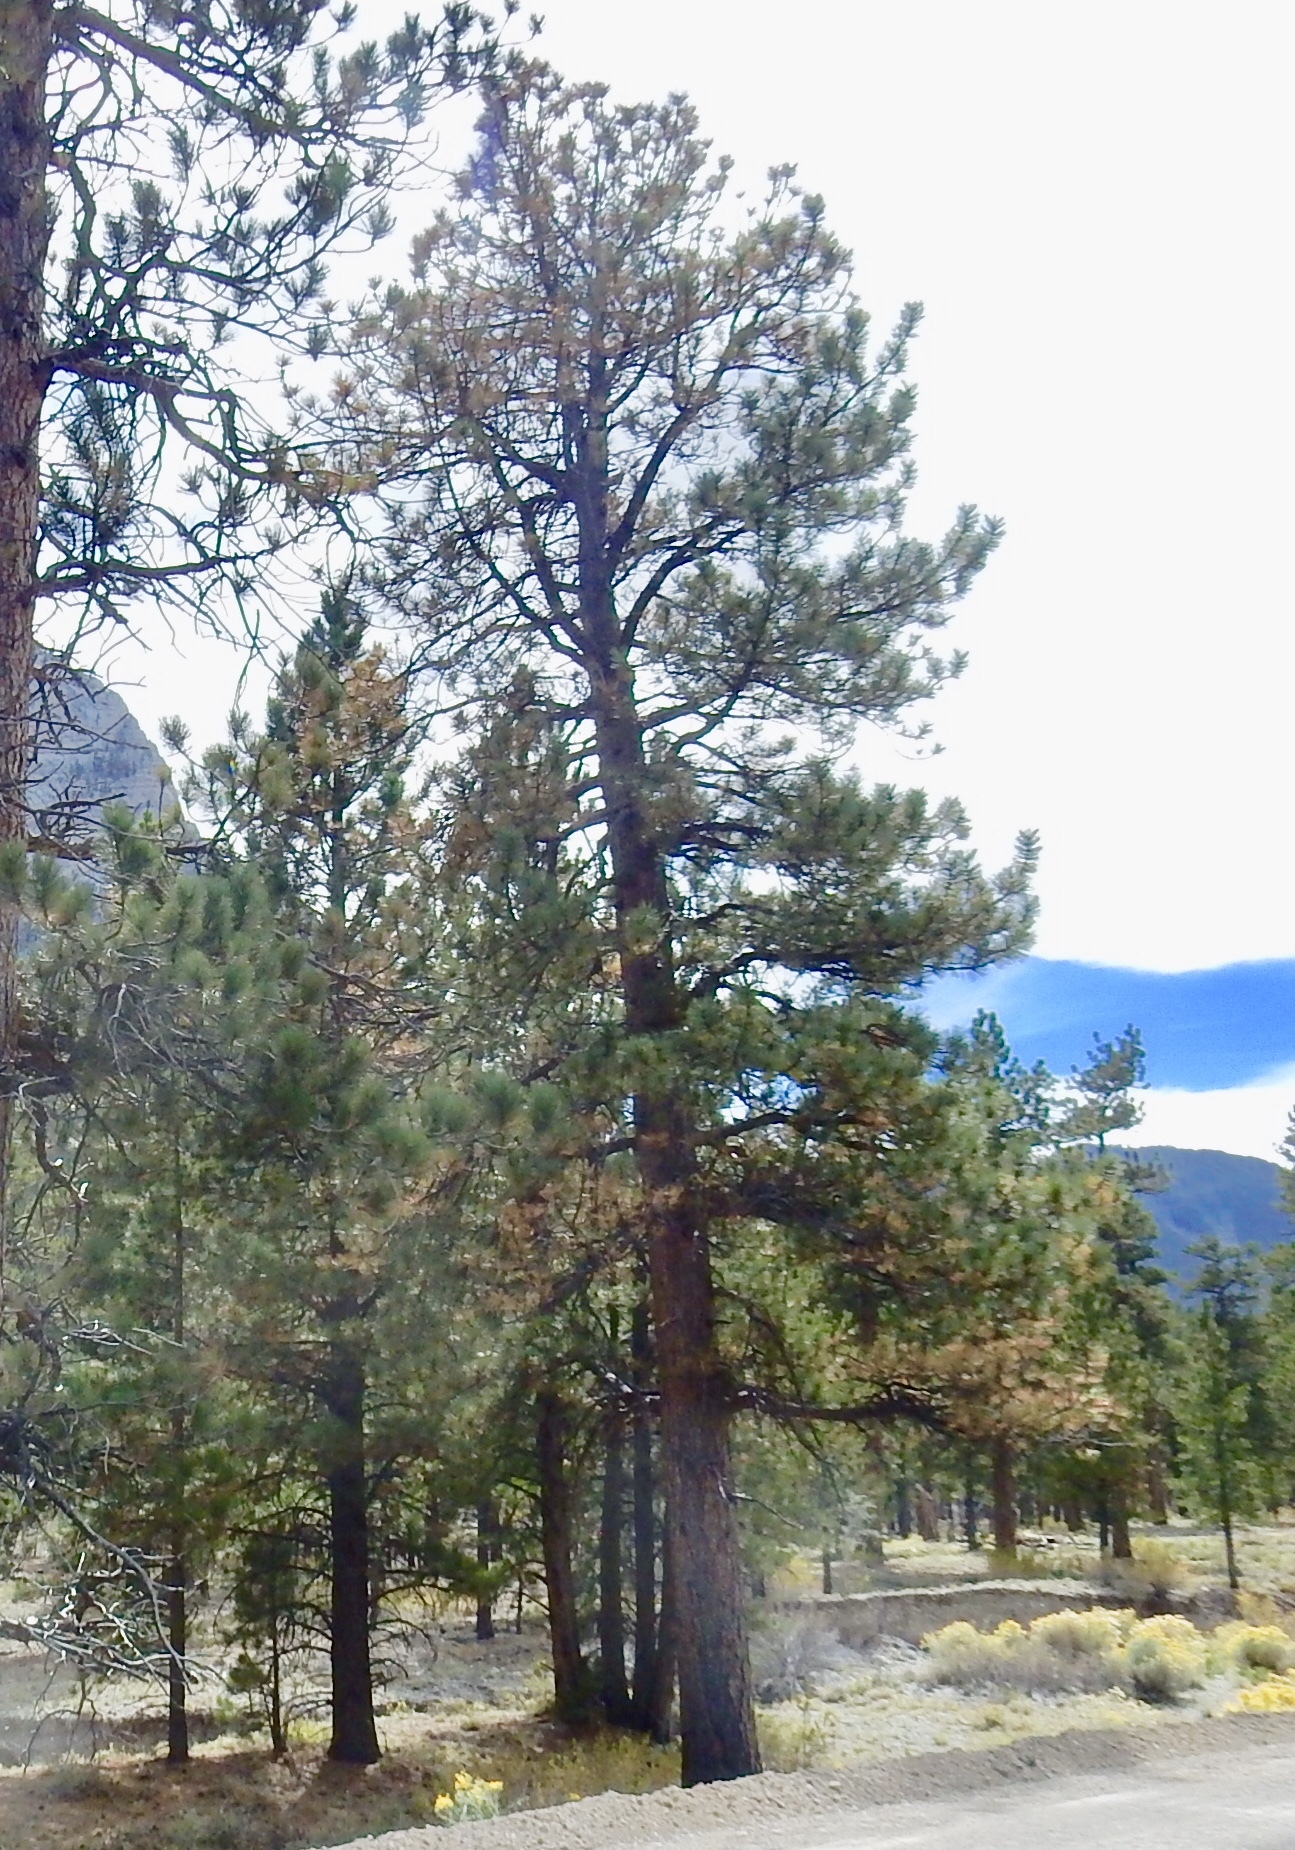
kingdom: Plantae
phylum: Tracheophyta
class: Pinopsida
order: Pinales
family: Pinaceae
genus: Pinus
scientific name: Pinus ponderosa
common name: Western yellow-pine
